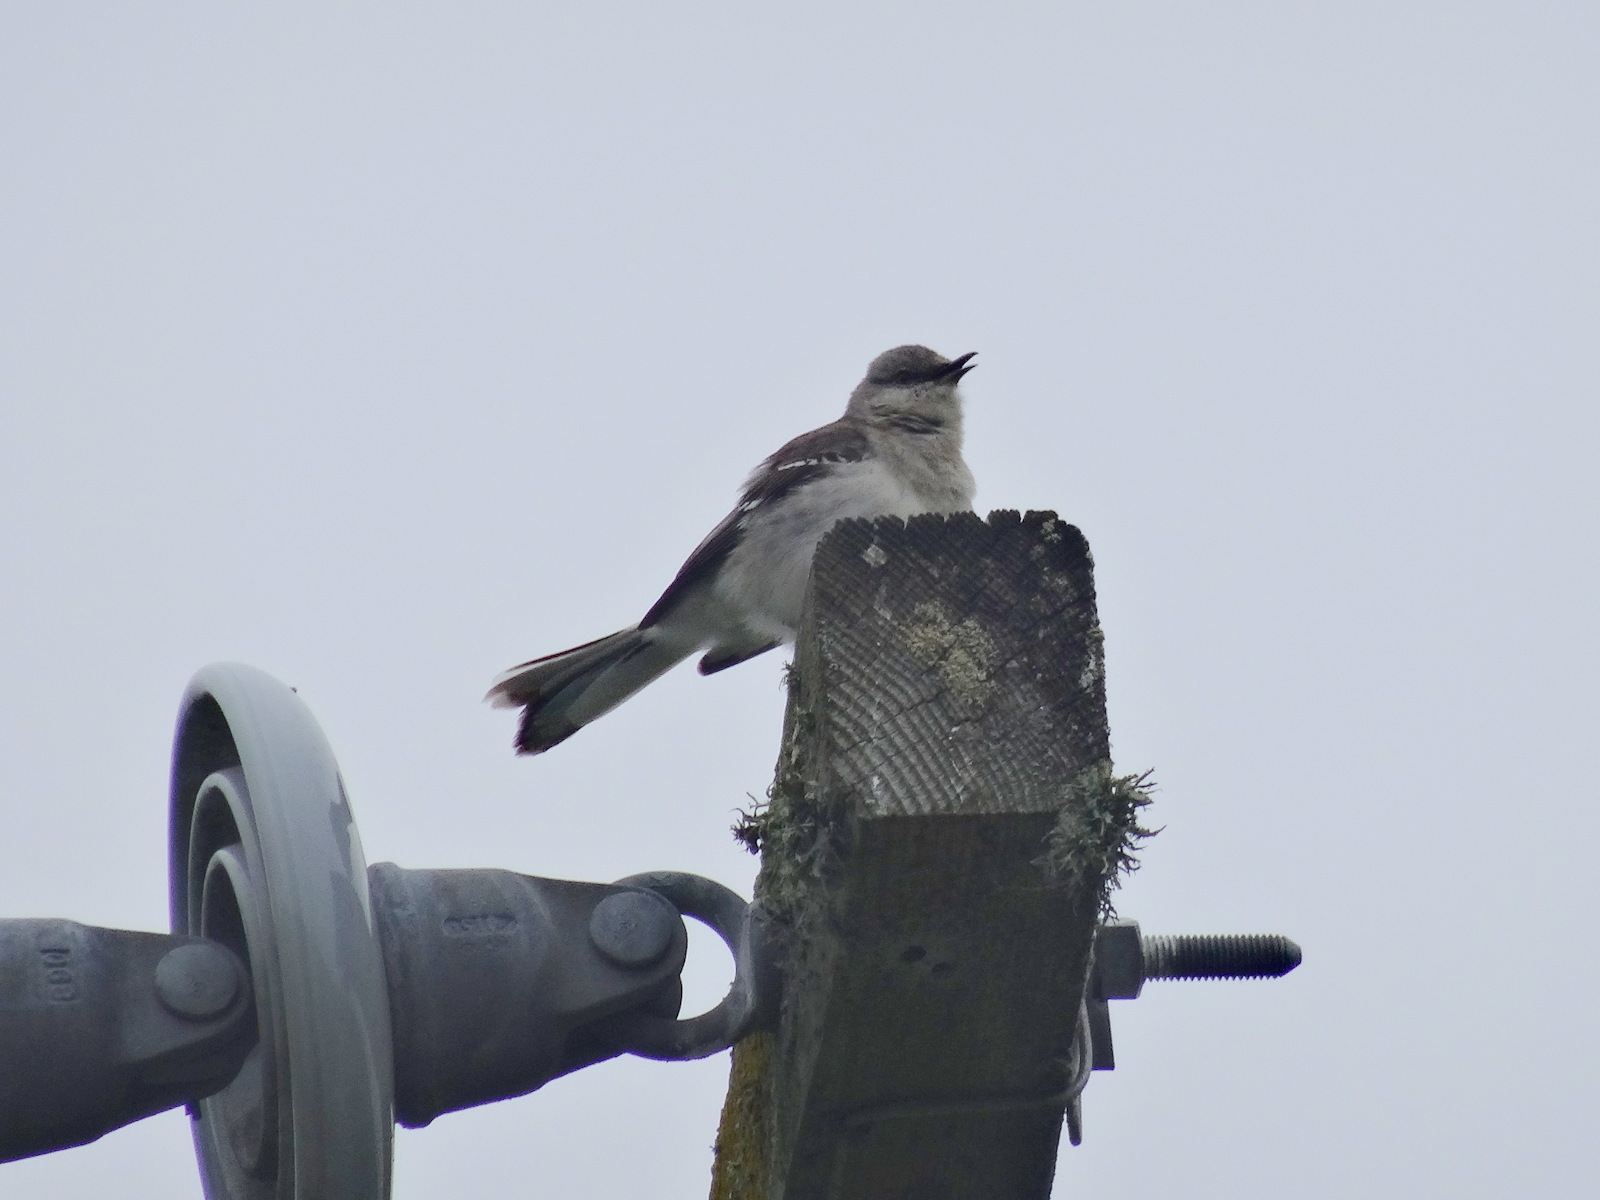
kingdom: Animalia
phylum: Chordata
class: Aves
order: Passeriformes
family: Mimidae
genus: Mimus
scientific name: Mimus polyglottos
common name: Northern mockingbird
